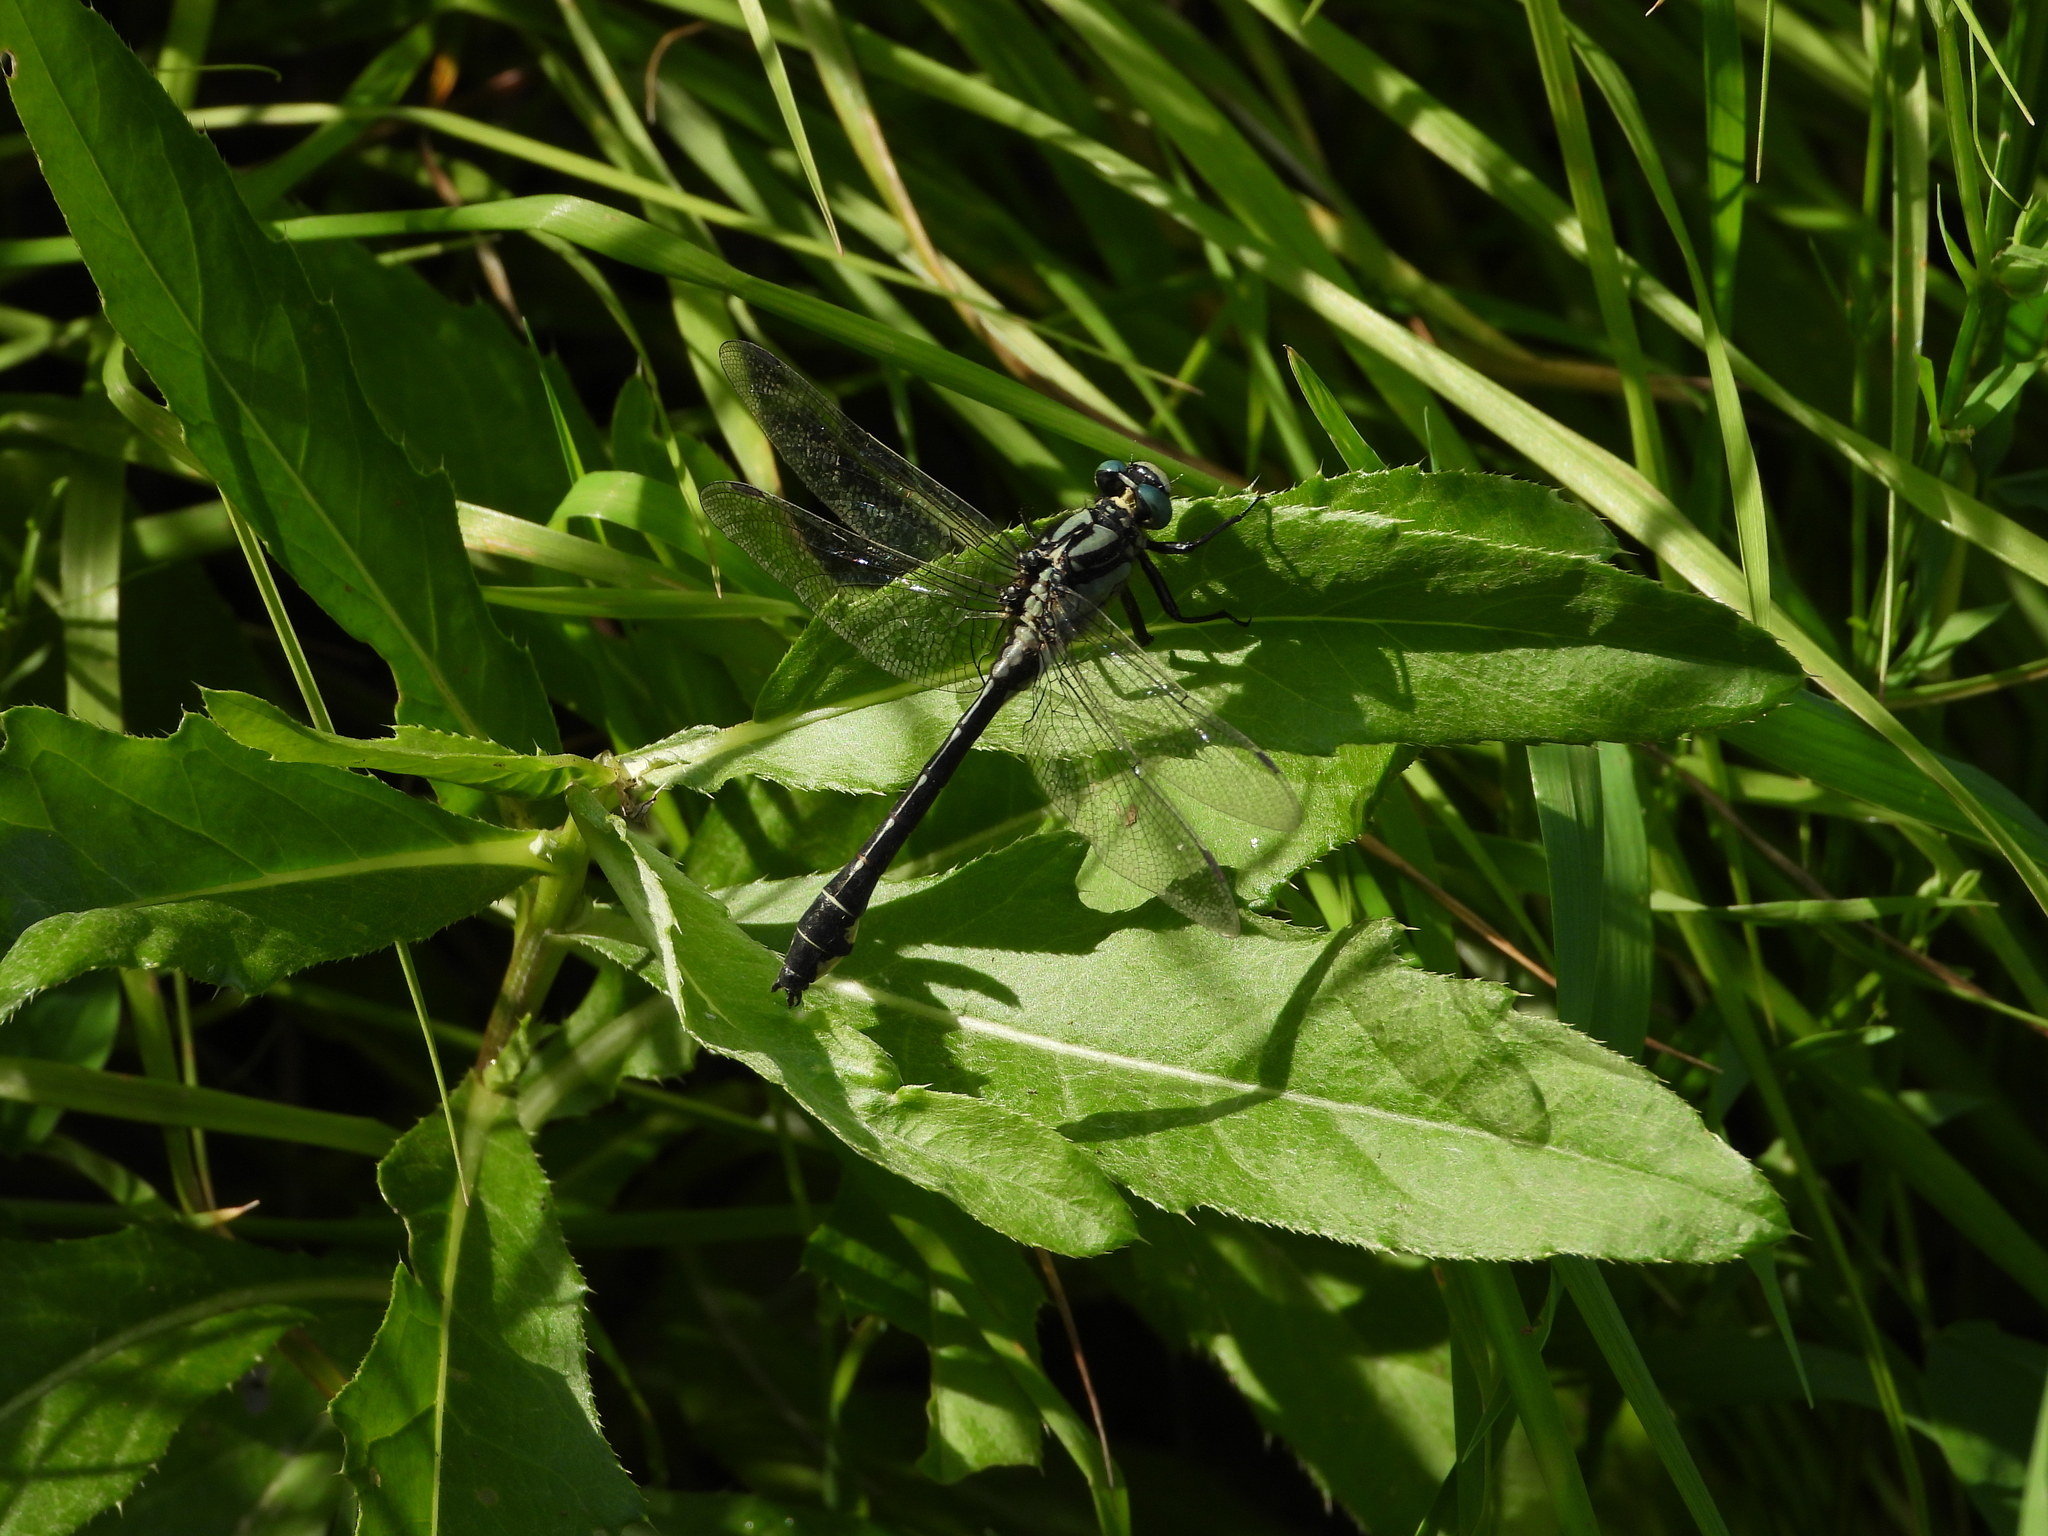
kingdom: Animalia
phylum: Arthropoda
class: Insecta
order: Odonata
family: Gomphidae
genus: Gomphus
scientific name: Gomphus vulgatissimus
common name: Club-tailed dragonfly
